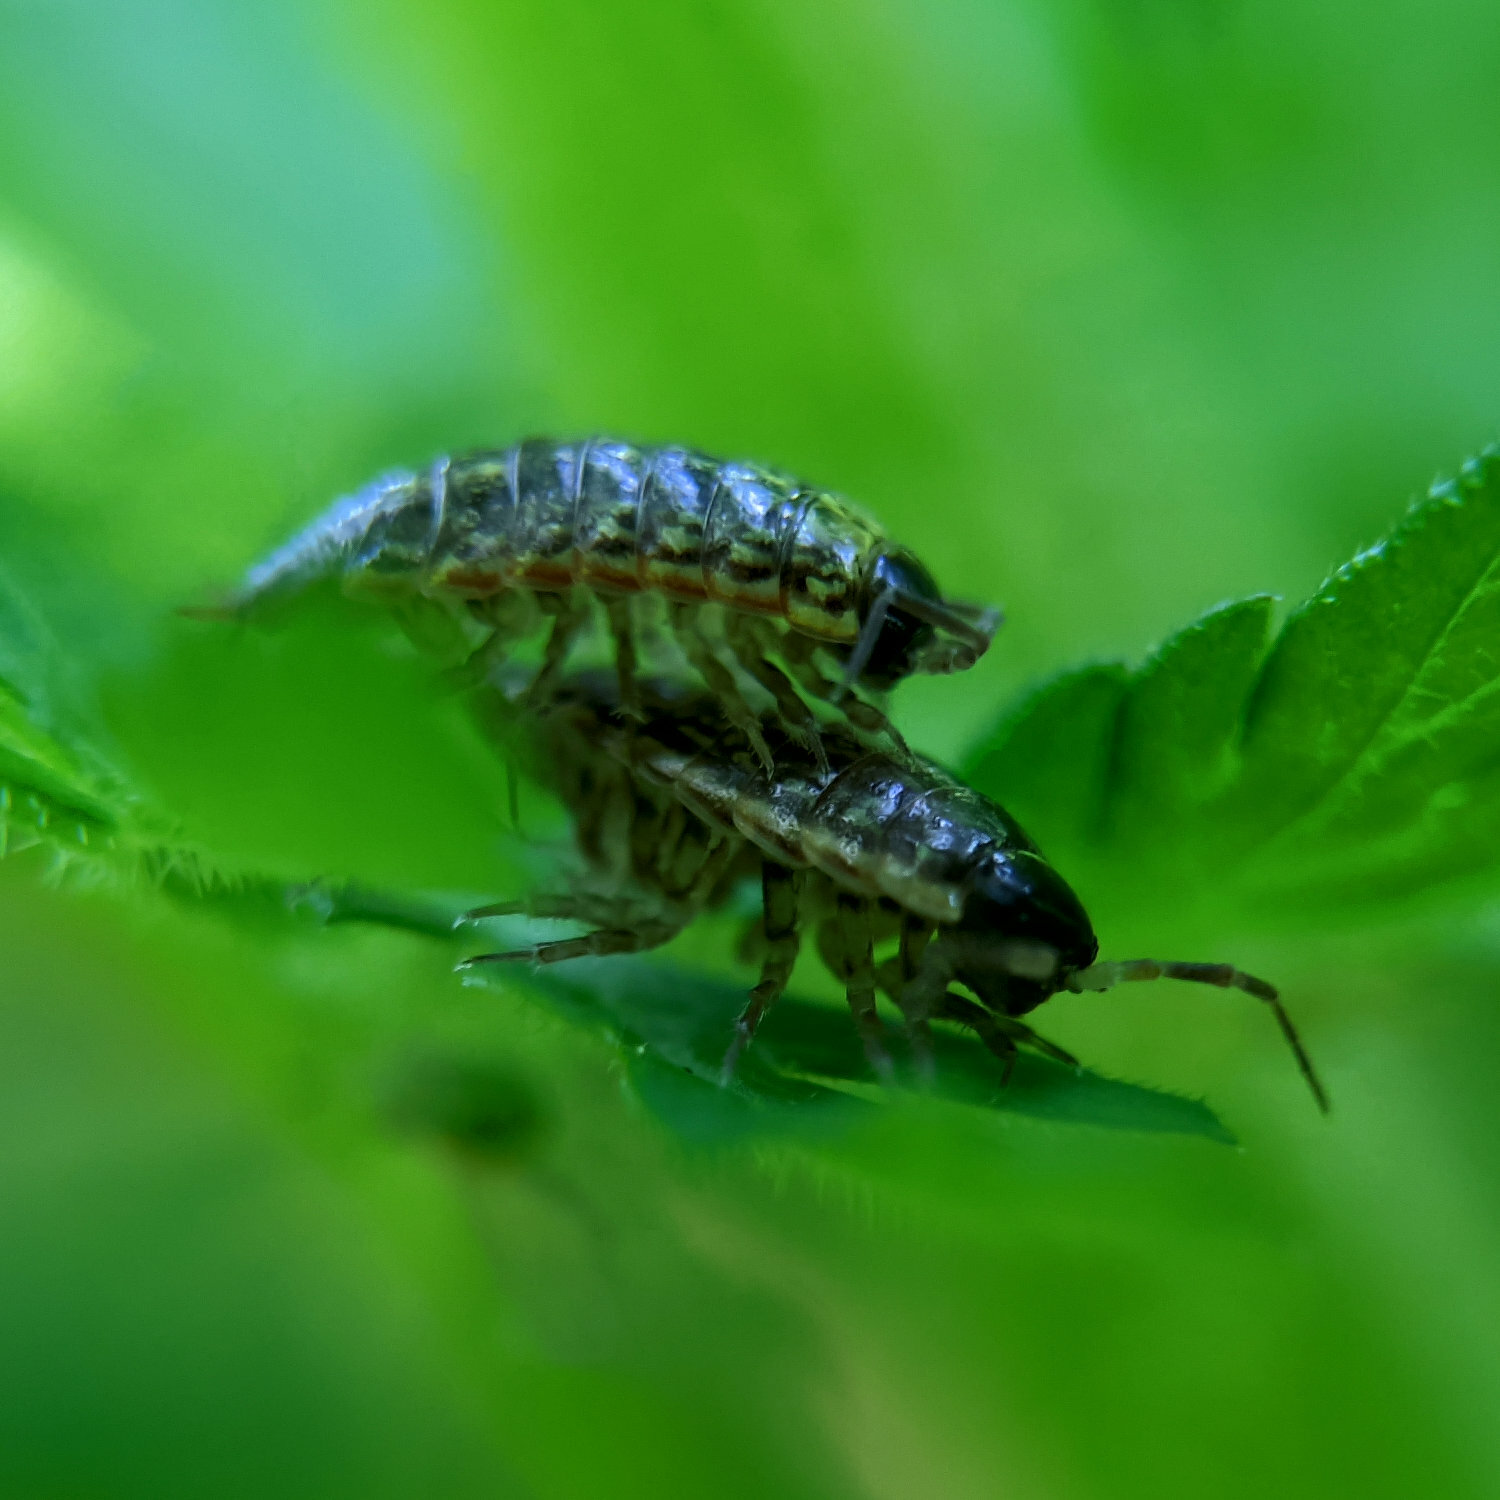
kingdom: Animalia
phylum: Arthropoda
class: Malacostraca
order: Isopoda
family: Philosciidae
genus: Philoscia
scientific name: Philoscia muscorum
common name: Common striped woodlouse
